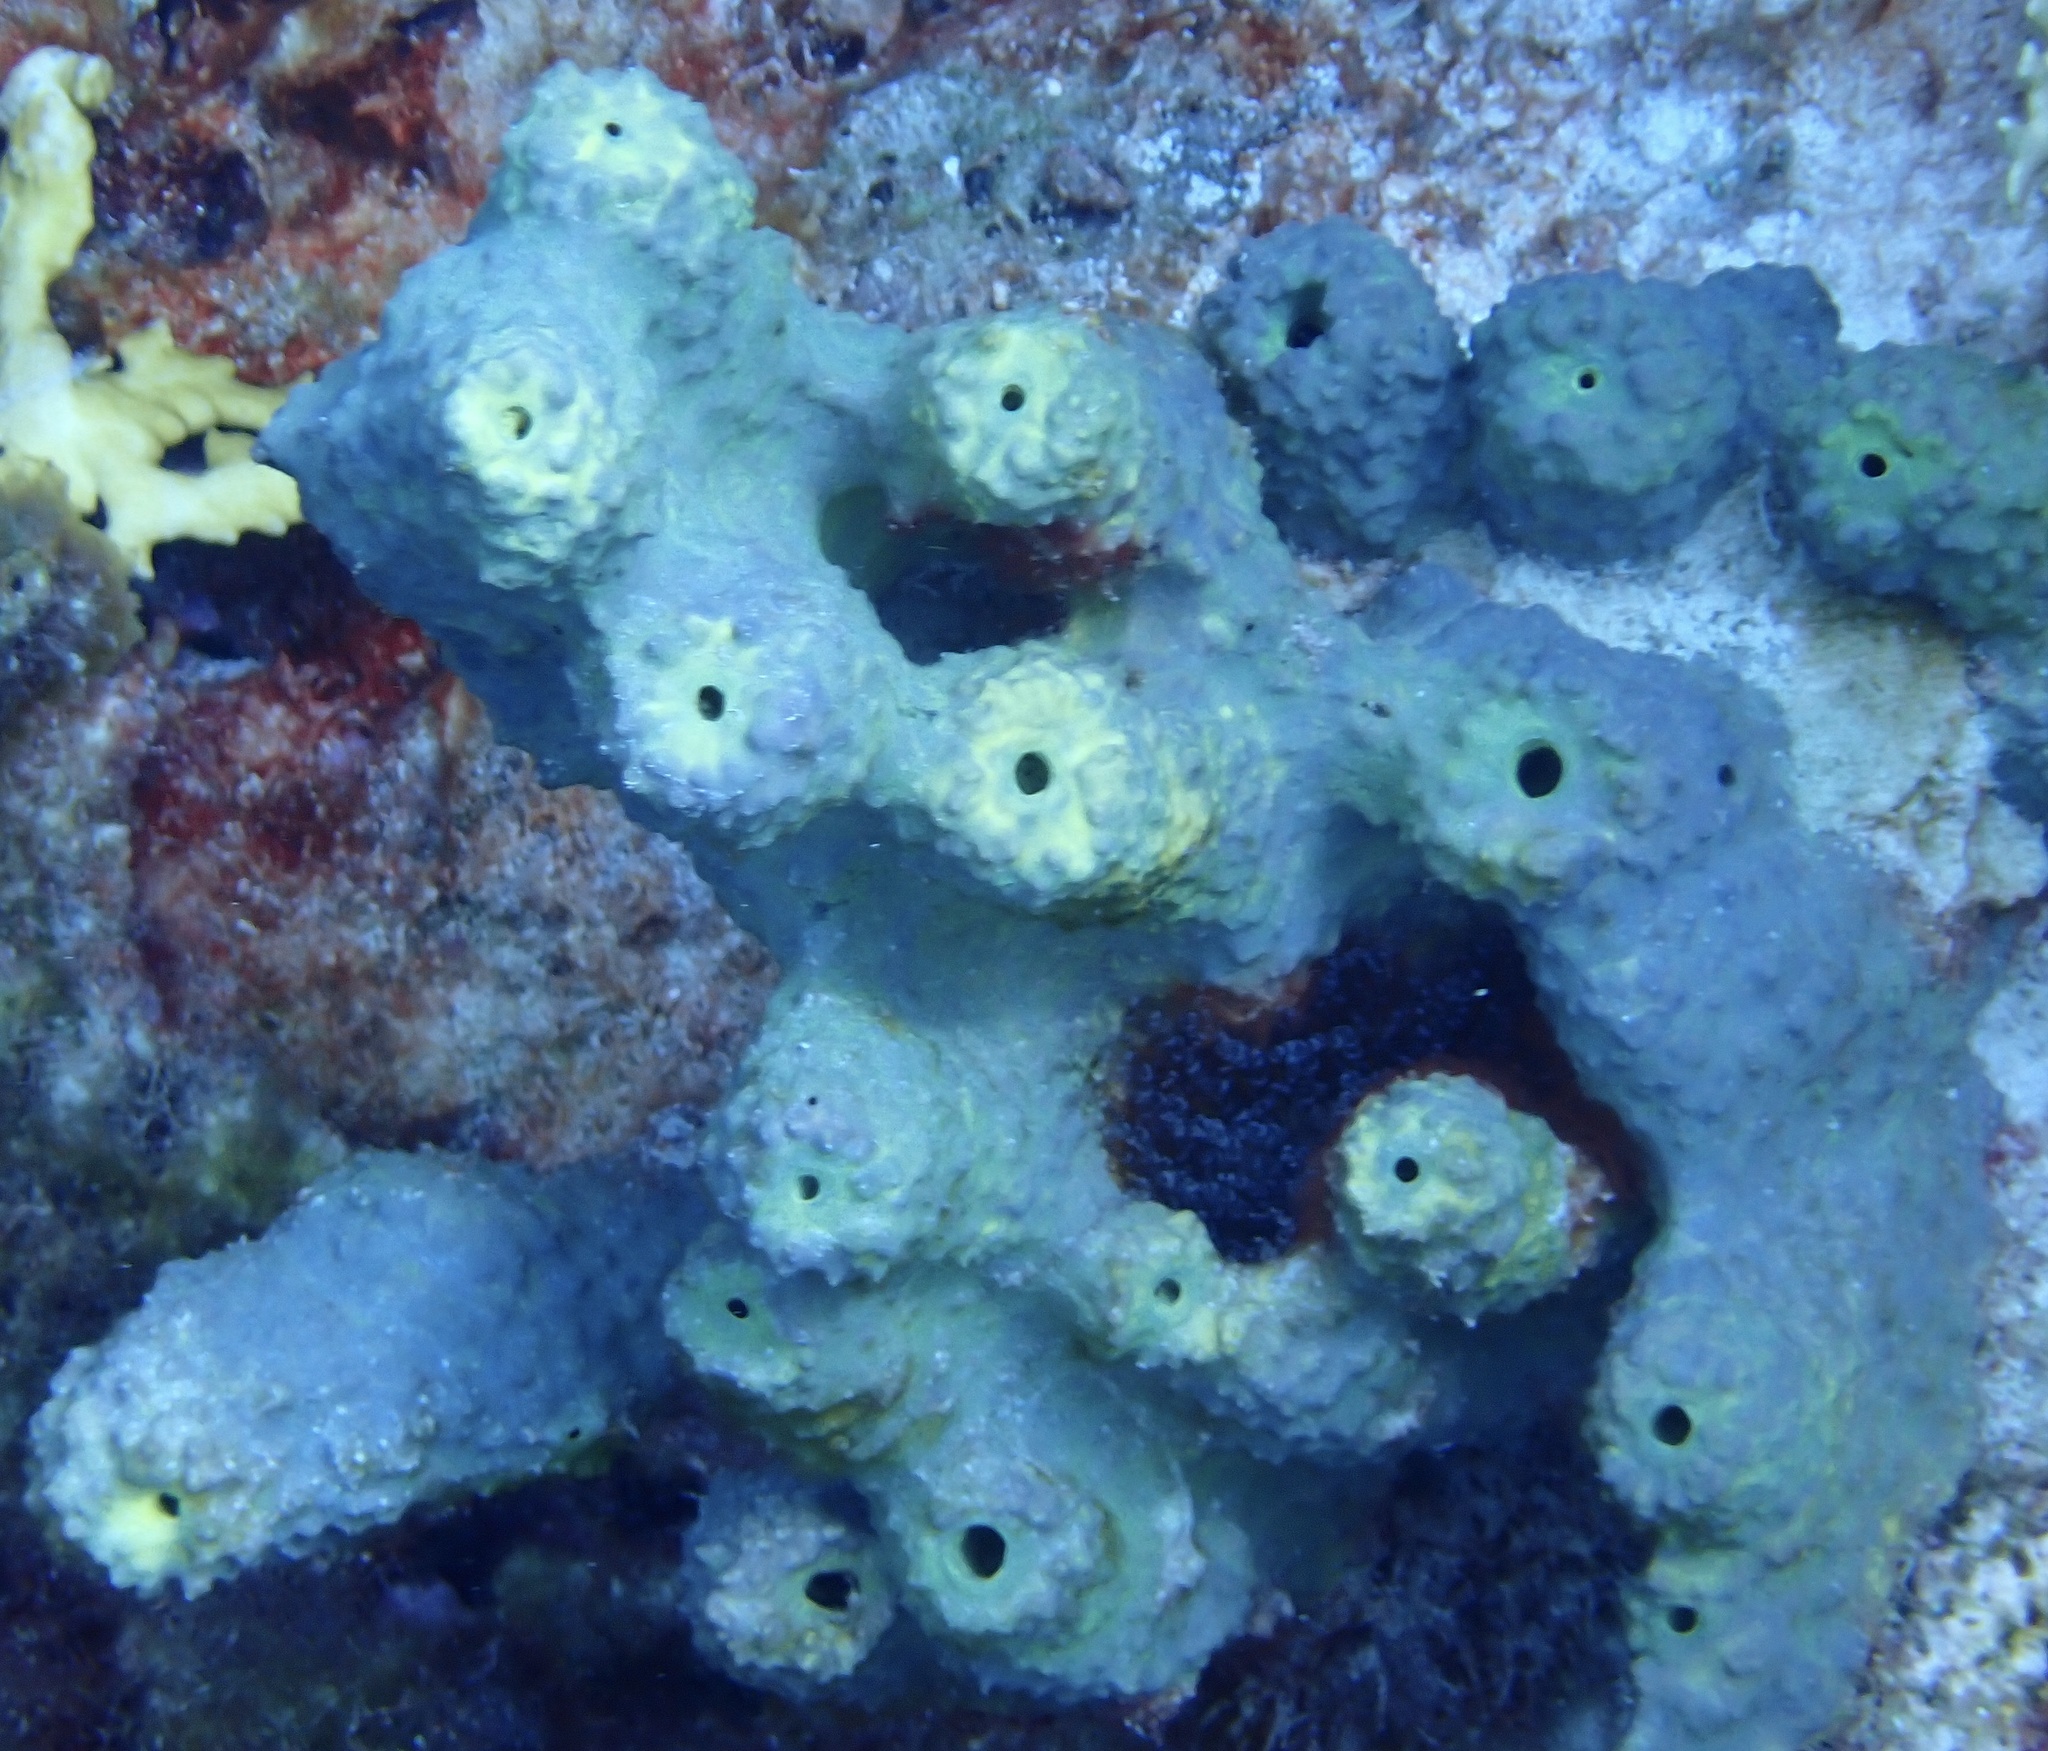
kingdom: Animalia
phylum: Porifera
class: Demospongiae
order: Verongiida
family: Aplysinidae
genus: Aiolochroia
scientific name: Aiolochroia crassa
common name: Branching tube sponge
